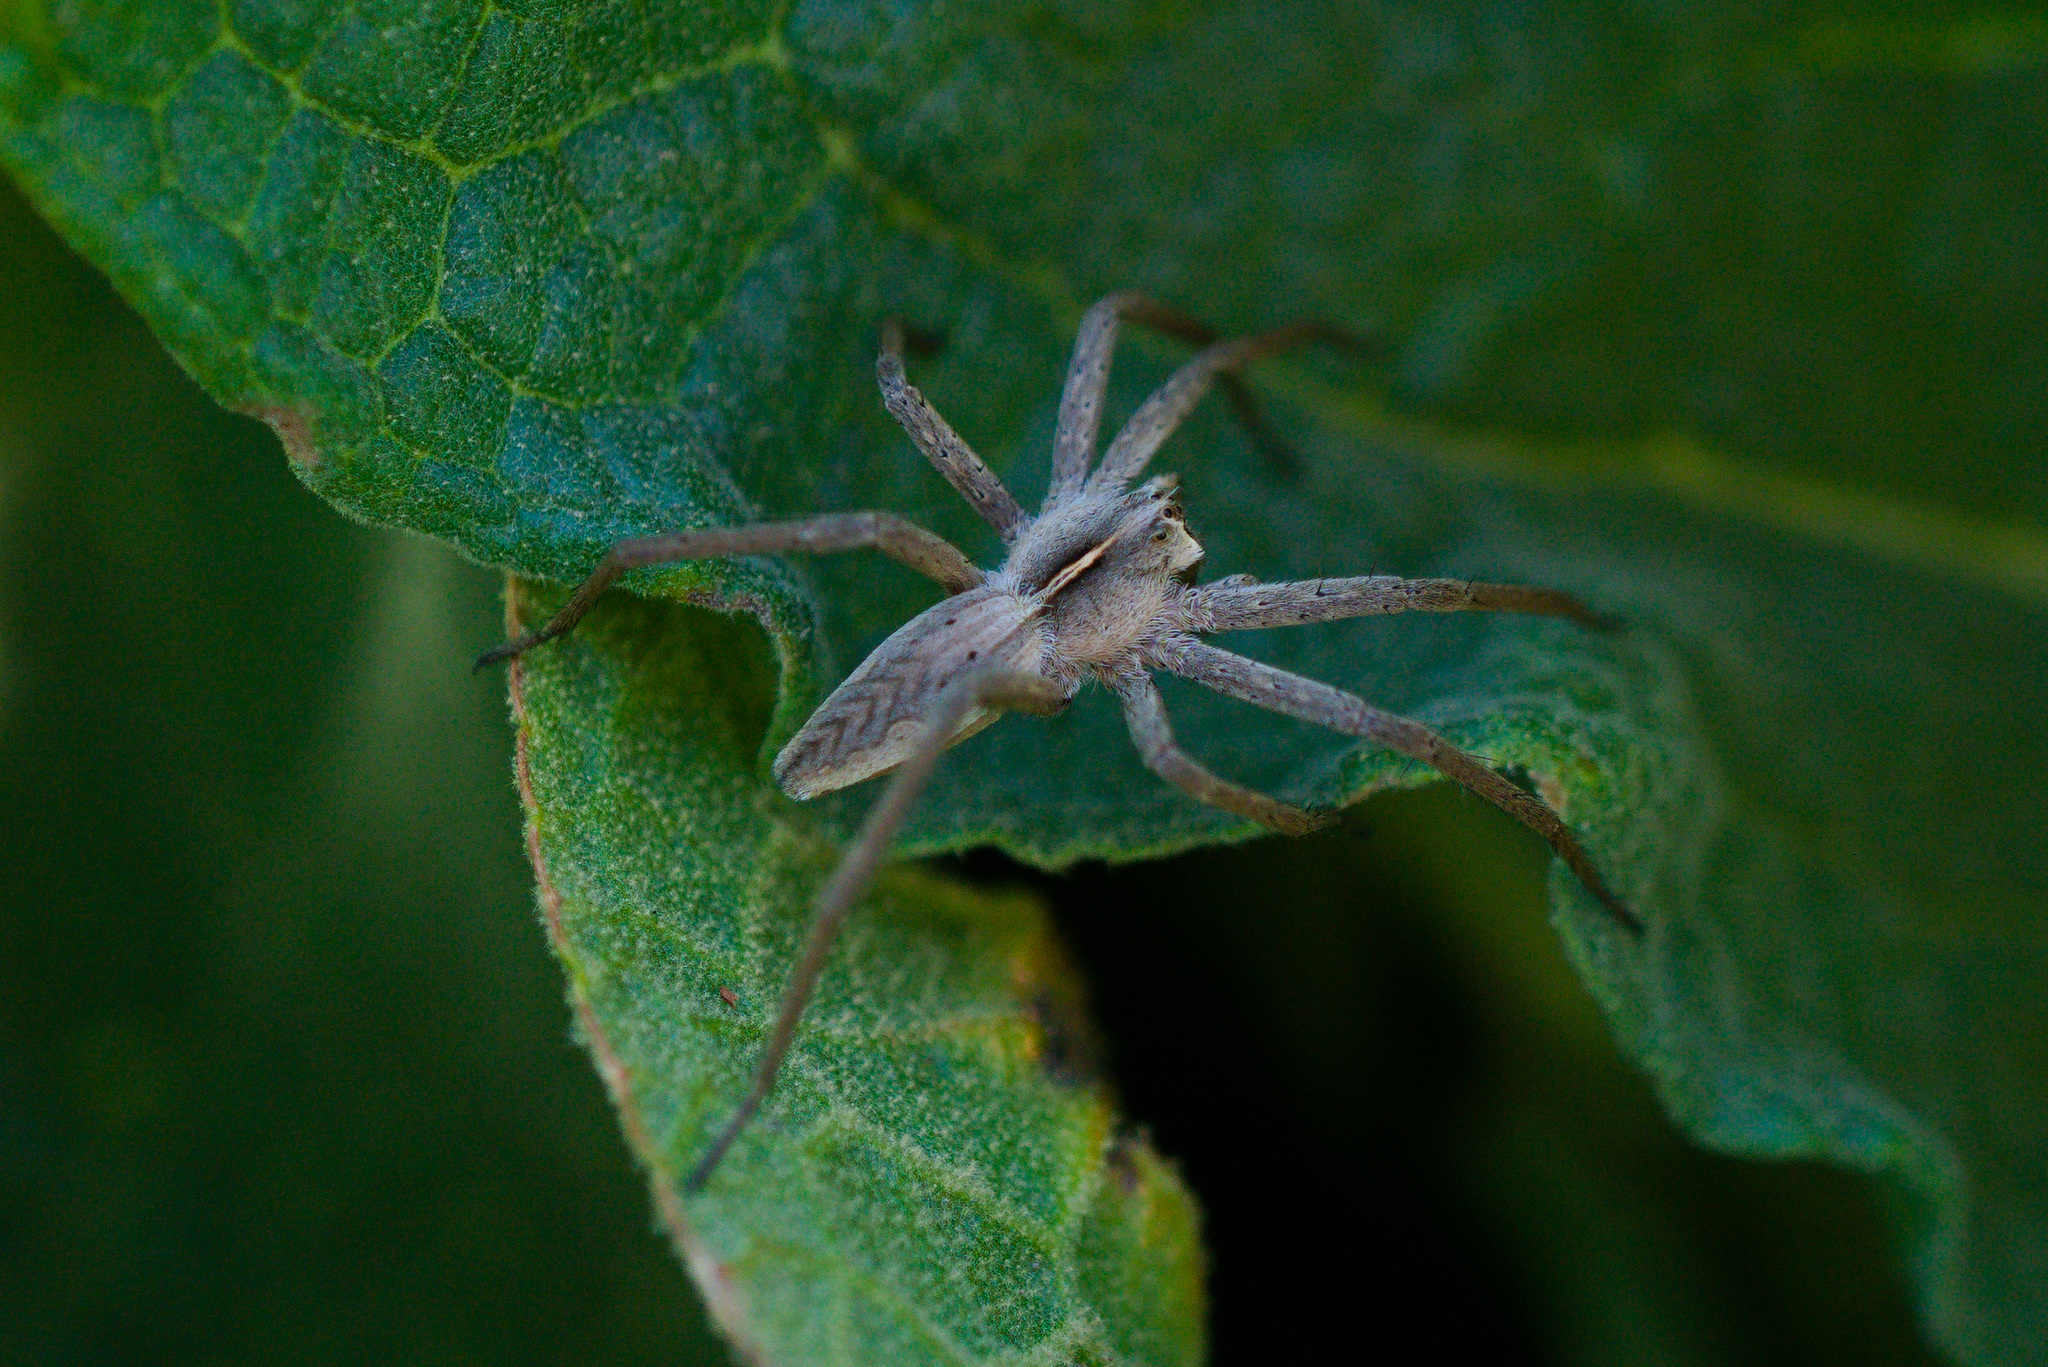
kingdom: Animalia
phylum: Arthropoda
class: Arachnida
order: Araneae
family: Pisauridae
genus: Pisaura
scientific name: Pisaura mirabilis
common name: Tent spider
